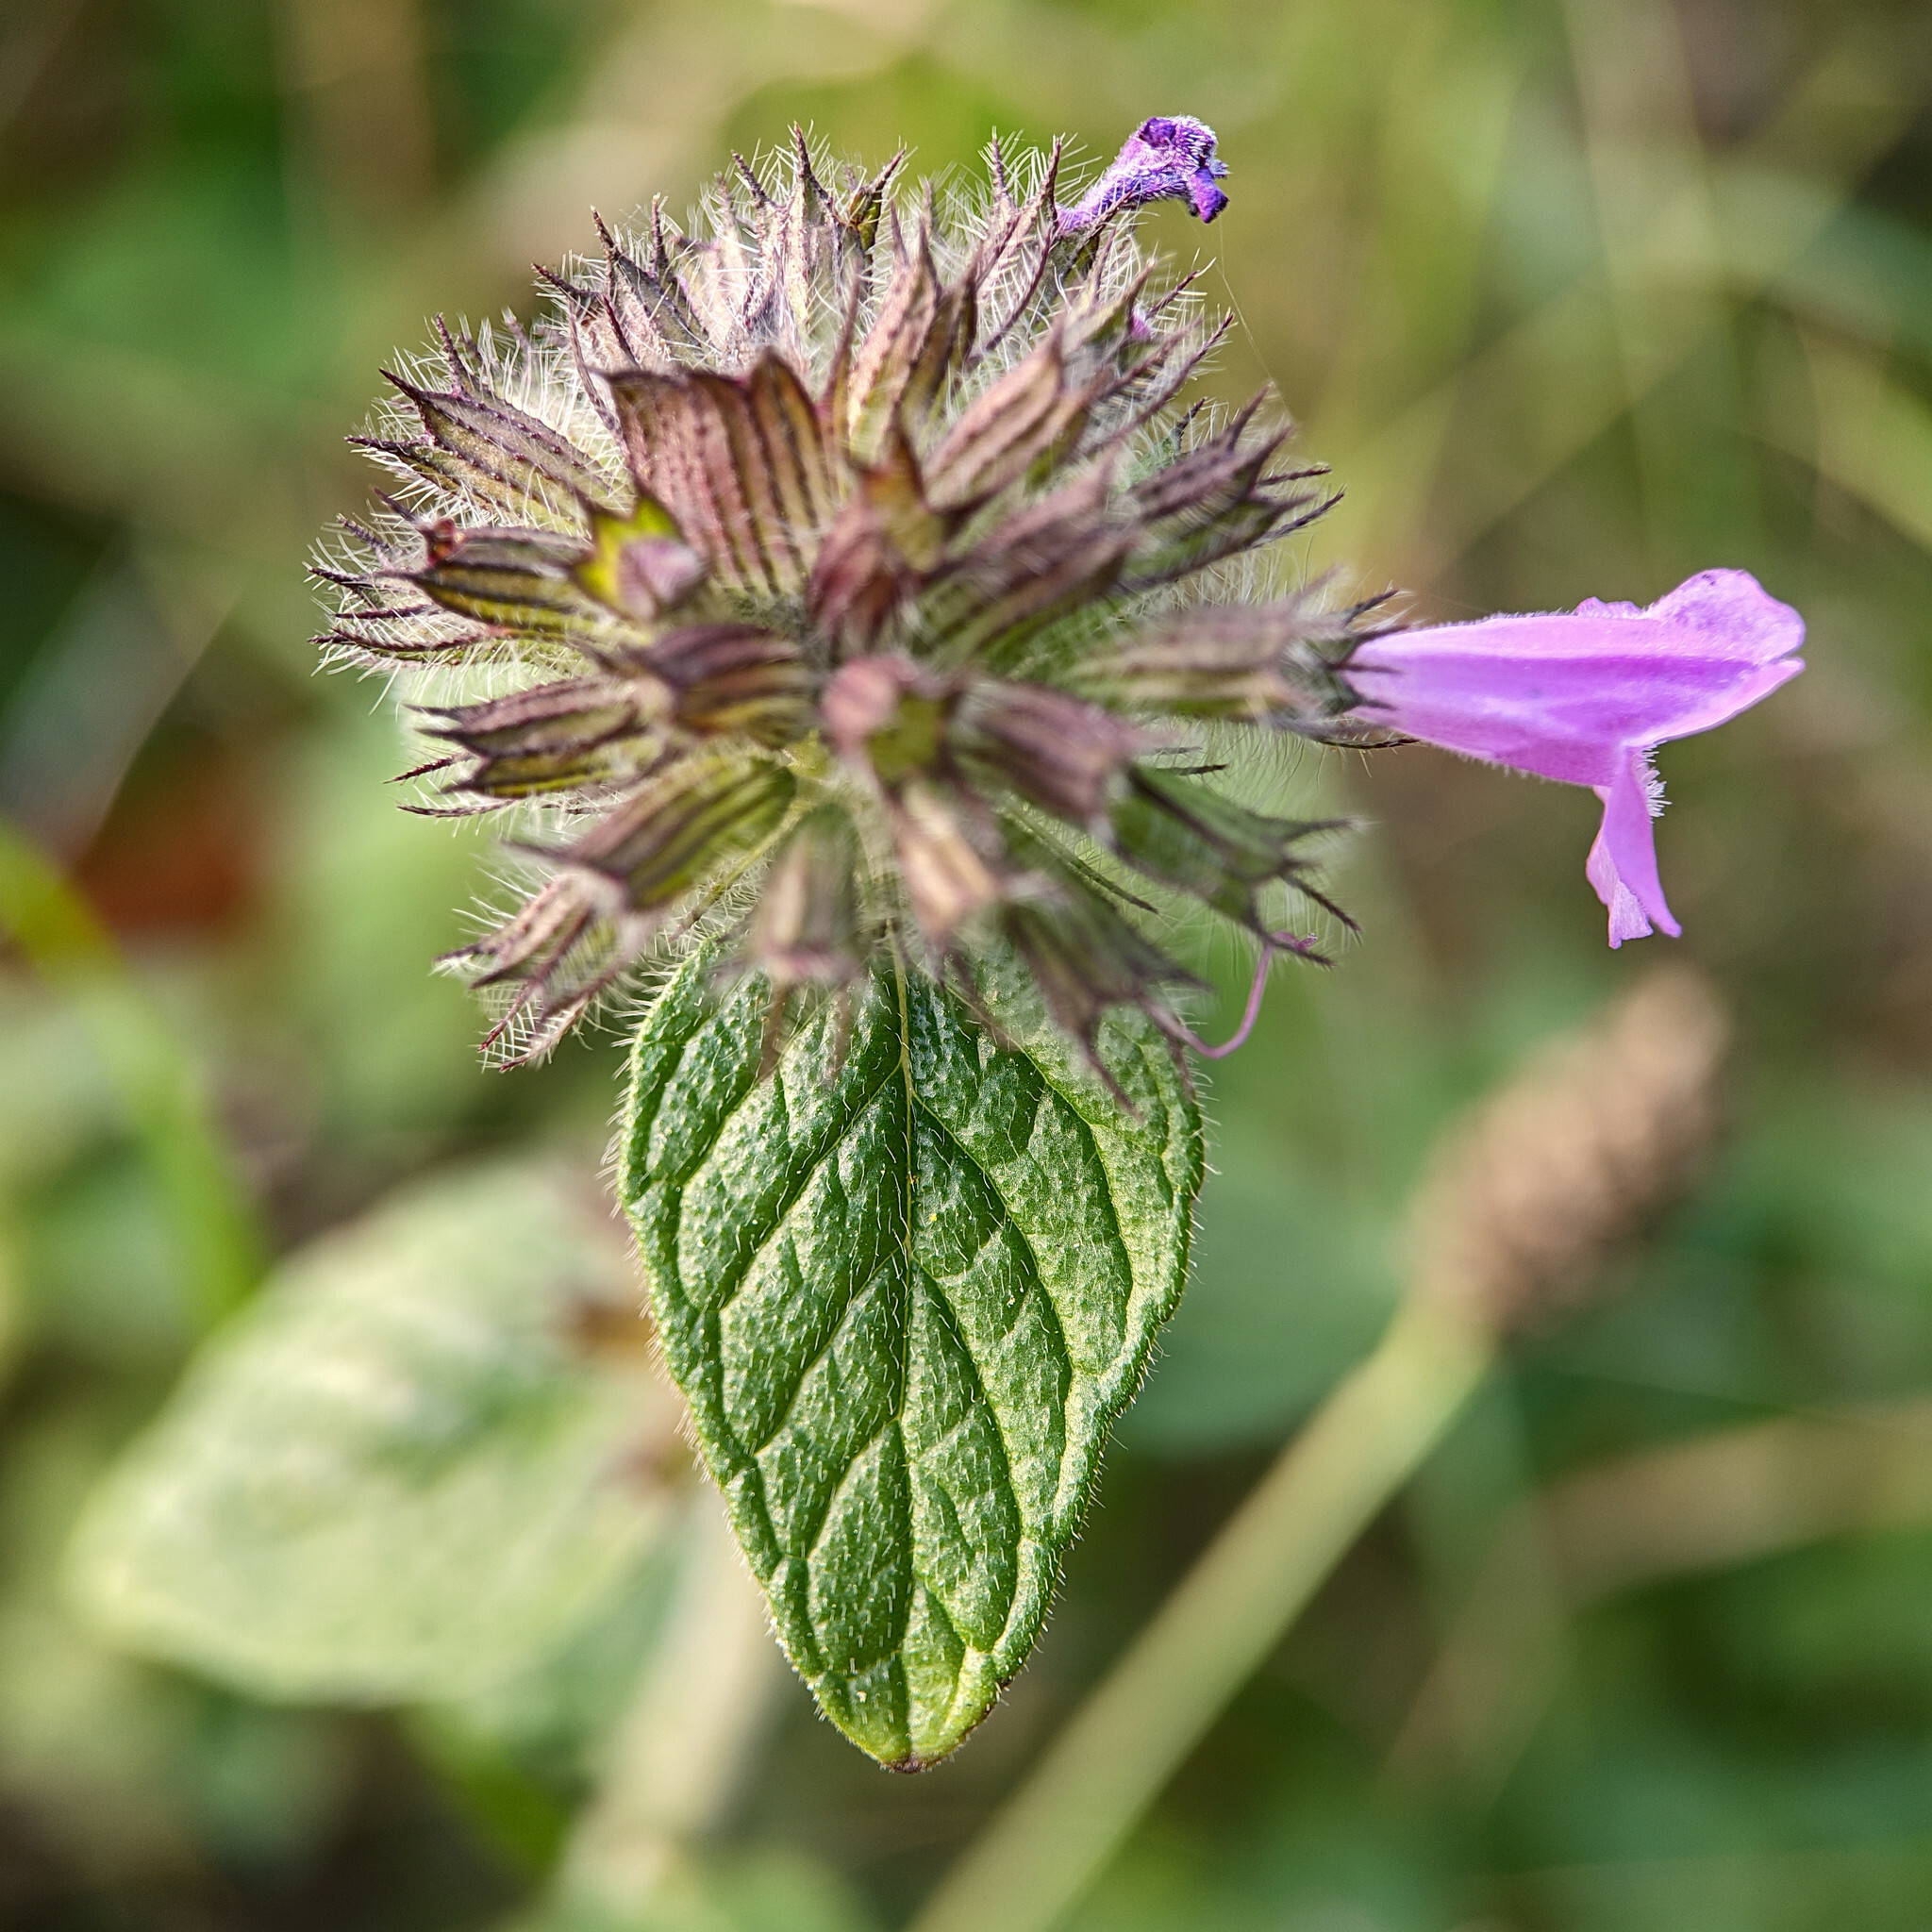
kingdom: Plantae
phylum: Tracheophyta
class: Magnoliopsida
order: Lamiales
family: Lamiaceae
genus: Clinopodium
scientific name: Clinopodium vulgare
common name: Wild basil
